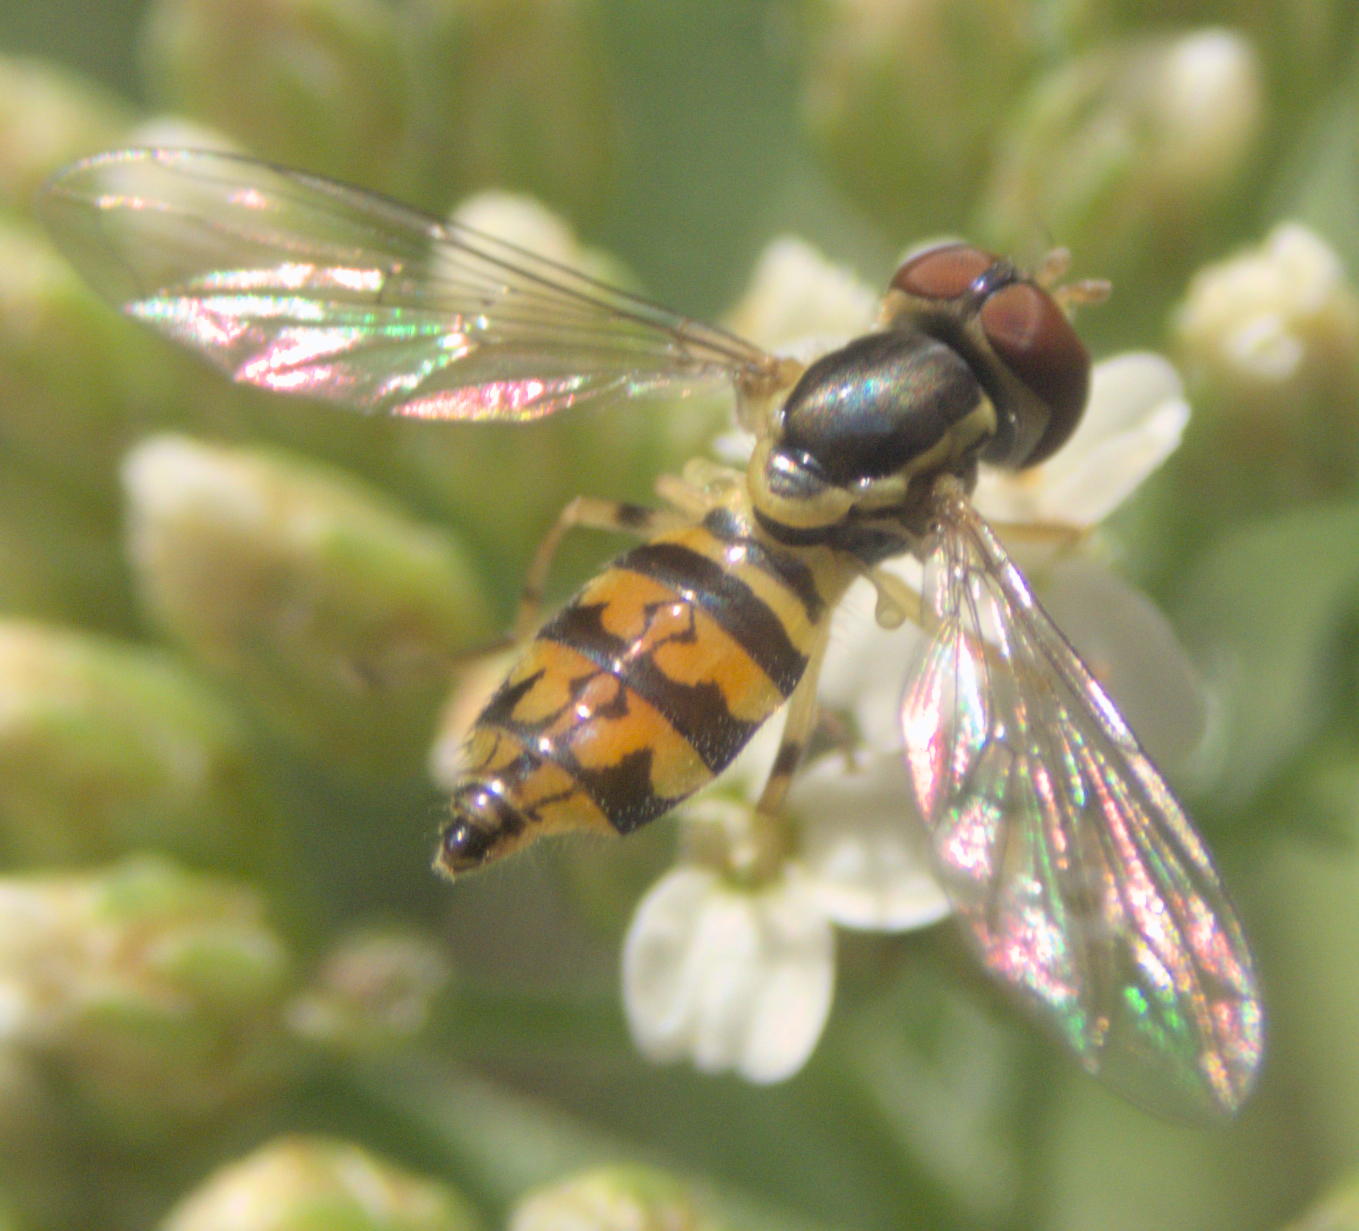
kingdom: Animalia
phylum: Arthropoda
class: Insecta
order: Diptera
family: Syrphidae
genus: Toxomerus
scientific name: Toxomerus geminatus
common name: Eastern calligrapher
